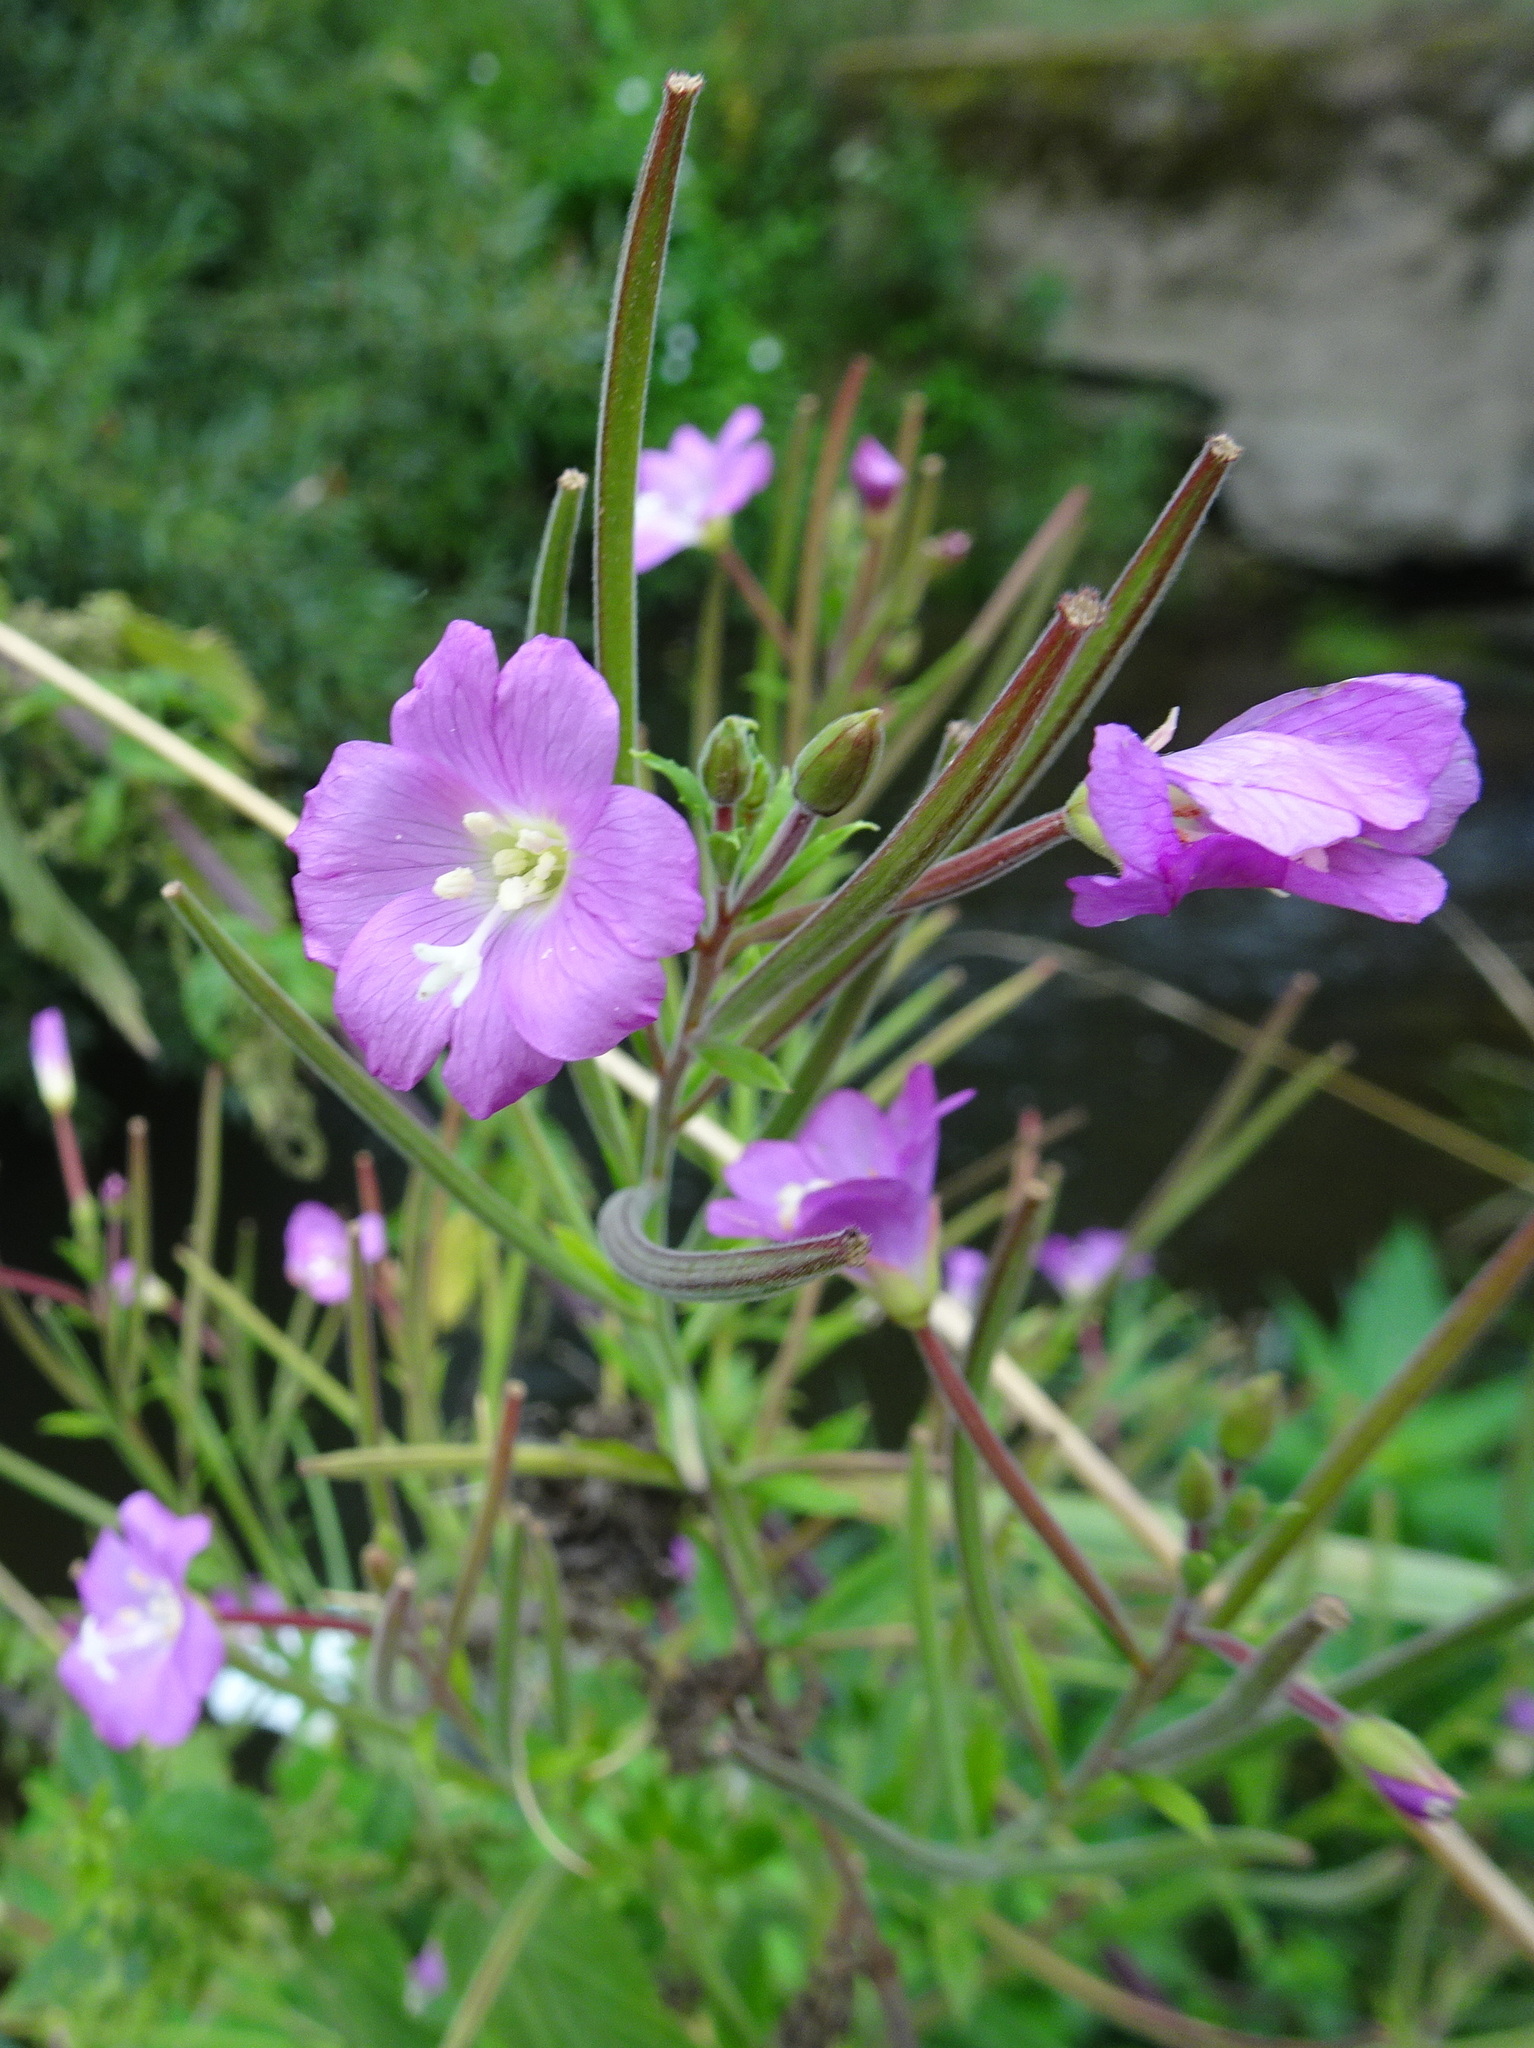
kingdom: Plantae
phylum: Tracheophyta
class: Magnoliopsida
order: Myrtales
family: Onagraceae
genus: Epilobium
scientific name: Epilobium hirsutum
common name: Great willowherb
